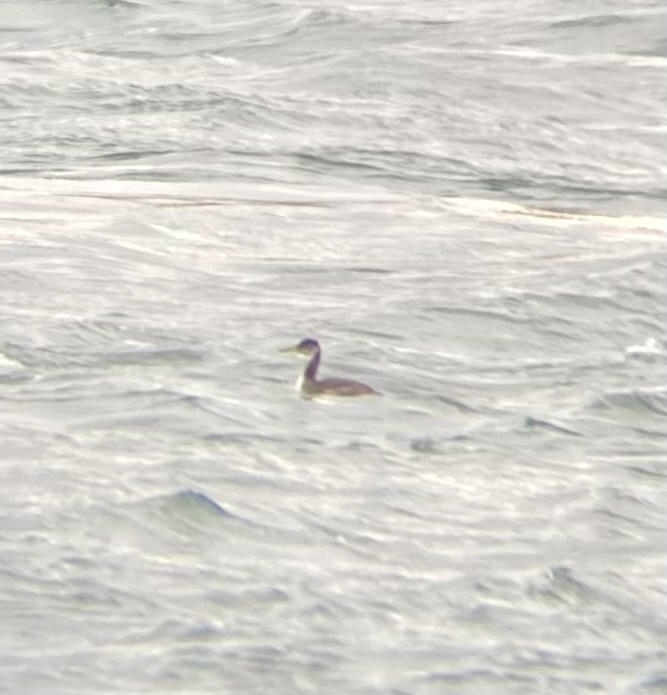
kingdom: Animalia
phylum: Chordata
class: Aves
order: Podicipediformes
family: Podicipedidae
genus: Podiceps
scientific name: Podiceps grisegena
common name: Red-necked grebe
